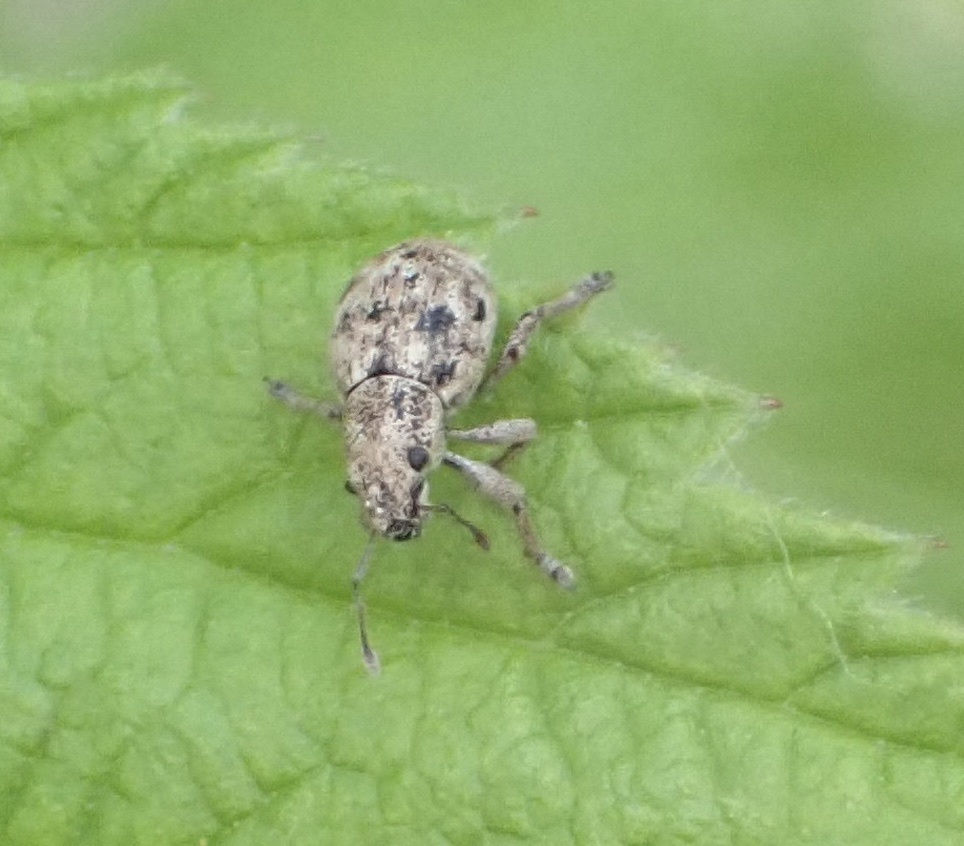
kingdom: Animalia
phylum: Arthropoda
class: Insecta
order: Coleoptera
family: Curculionidae
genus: Strophosoma
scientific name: Strophosoma capitatum
